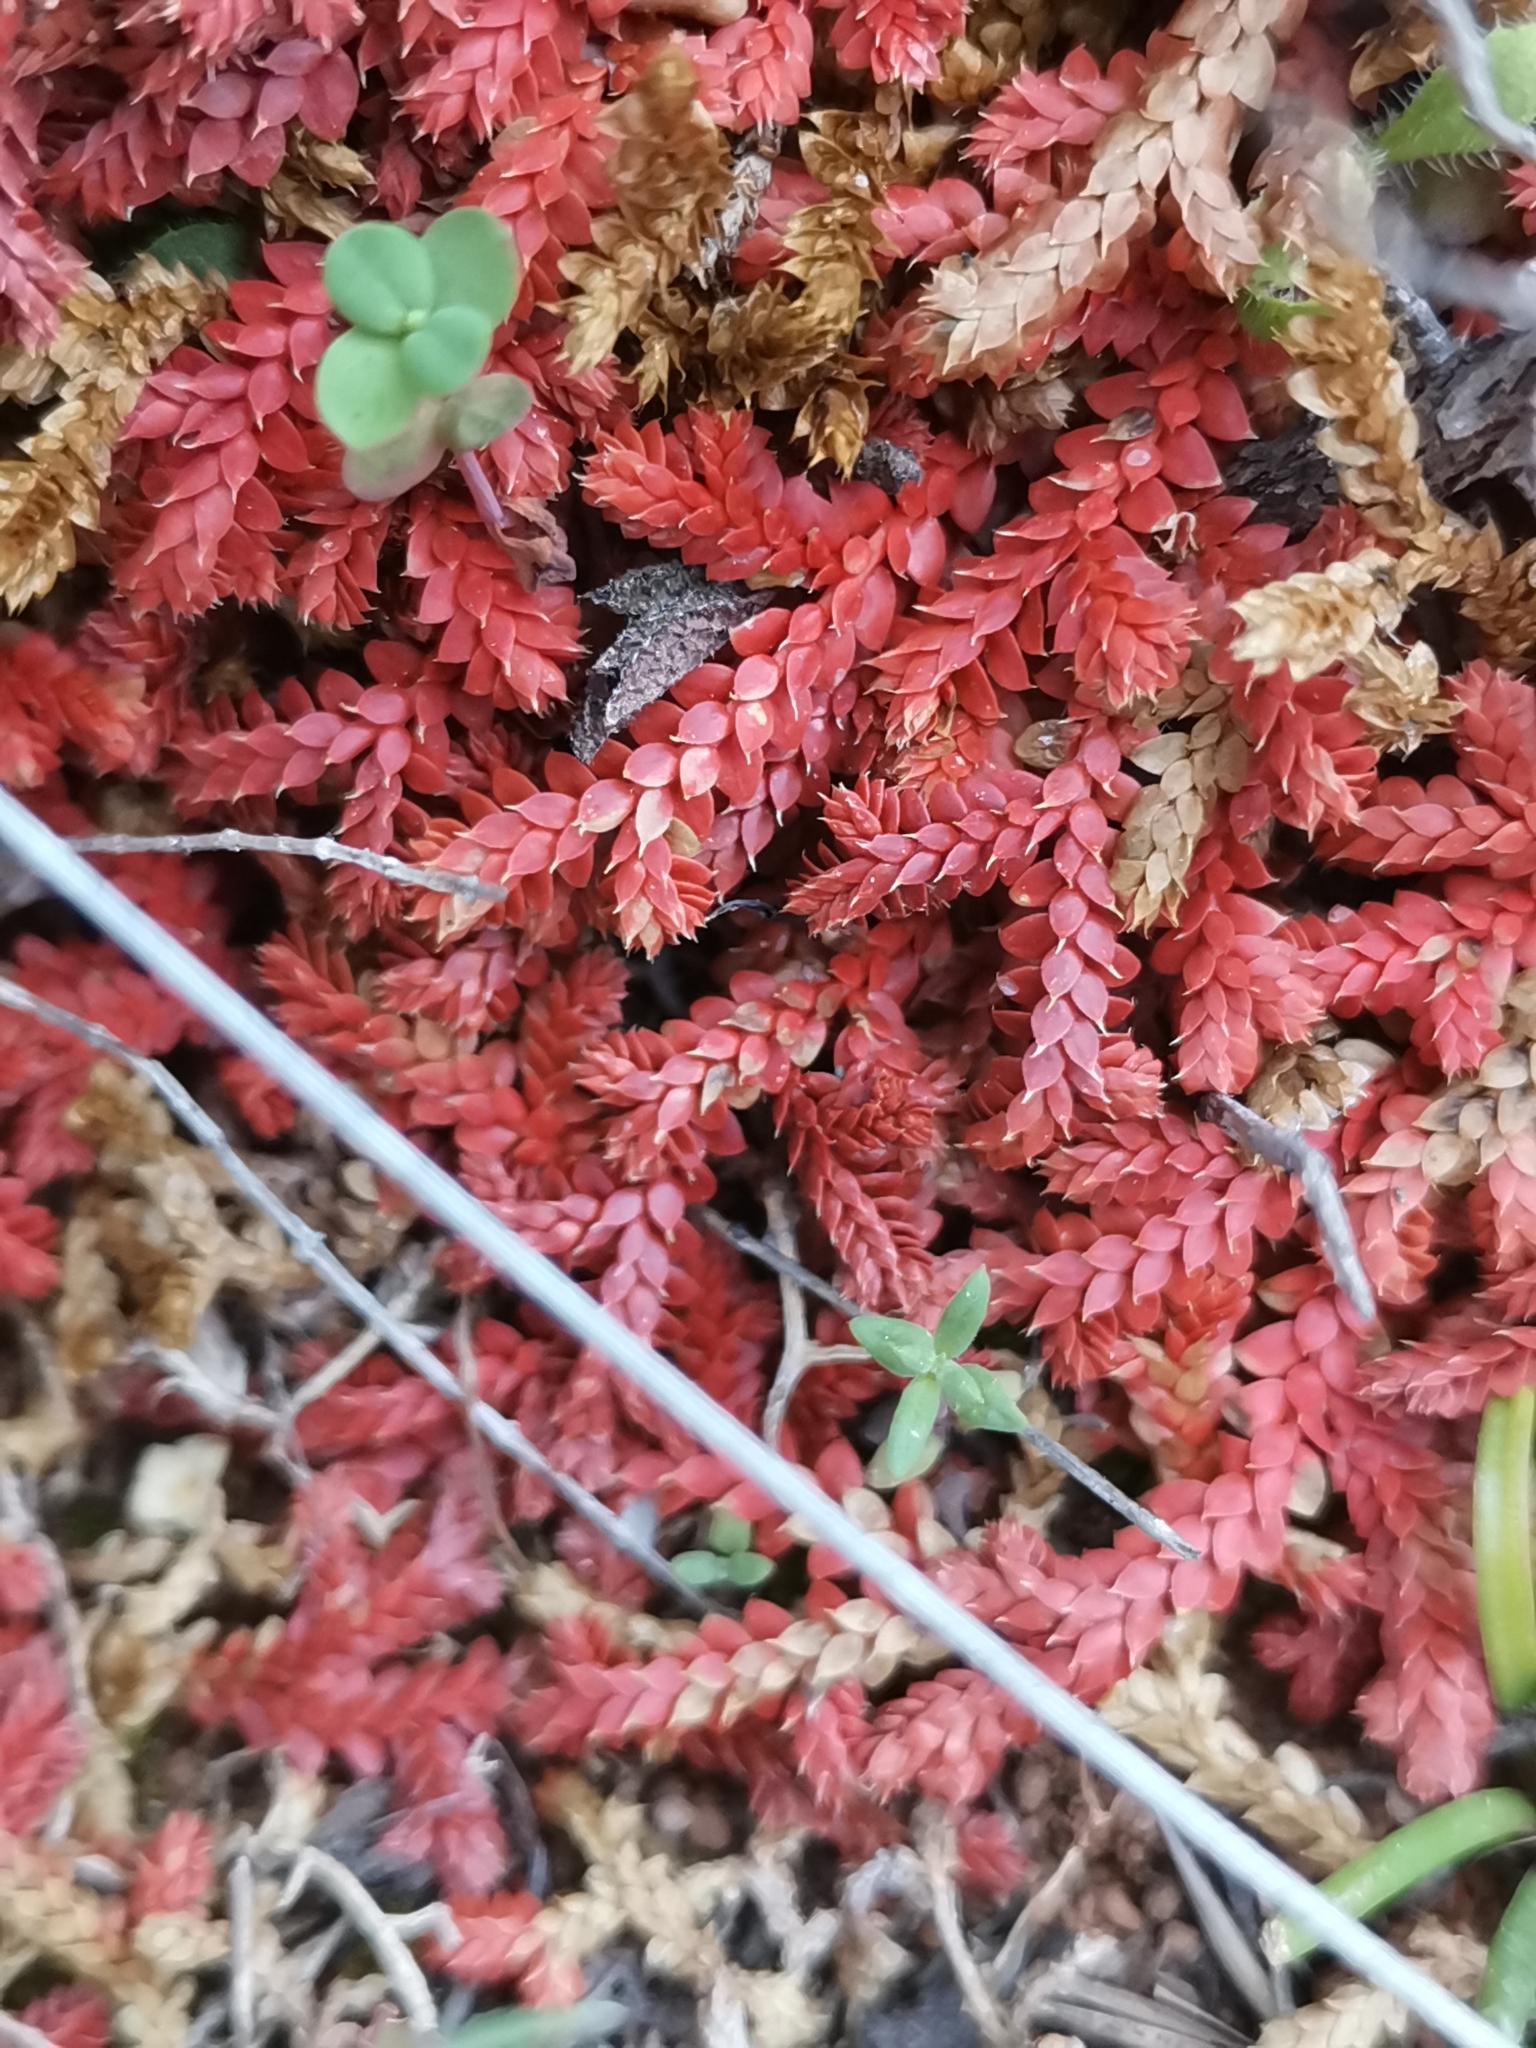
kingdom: Plantae
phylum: Tracheophyta
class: Lycopodiopsida
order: Selaginellales
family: Selaginellaceae
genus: Selaginella
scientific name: Selaginella denticulata
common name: Toothed-leaved clubmoss
